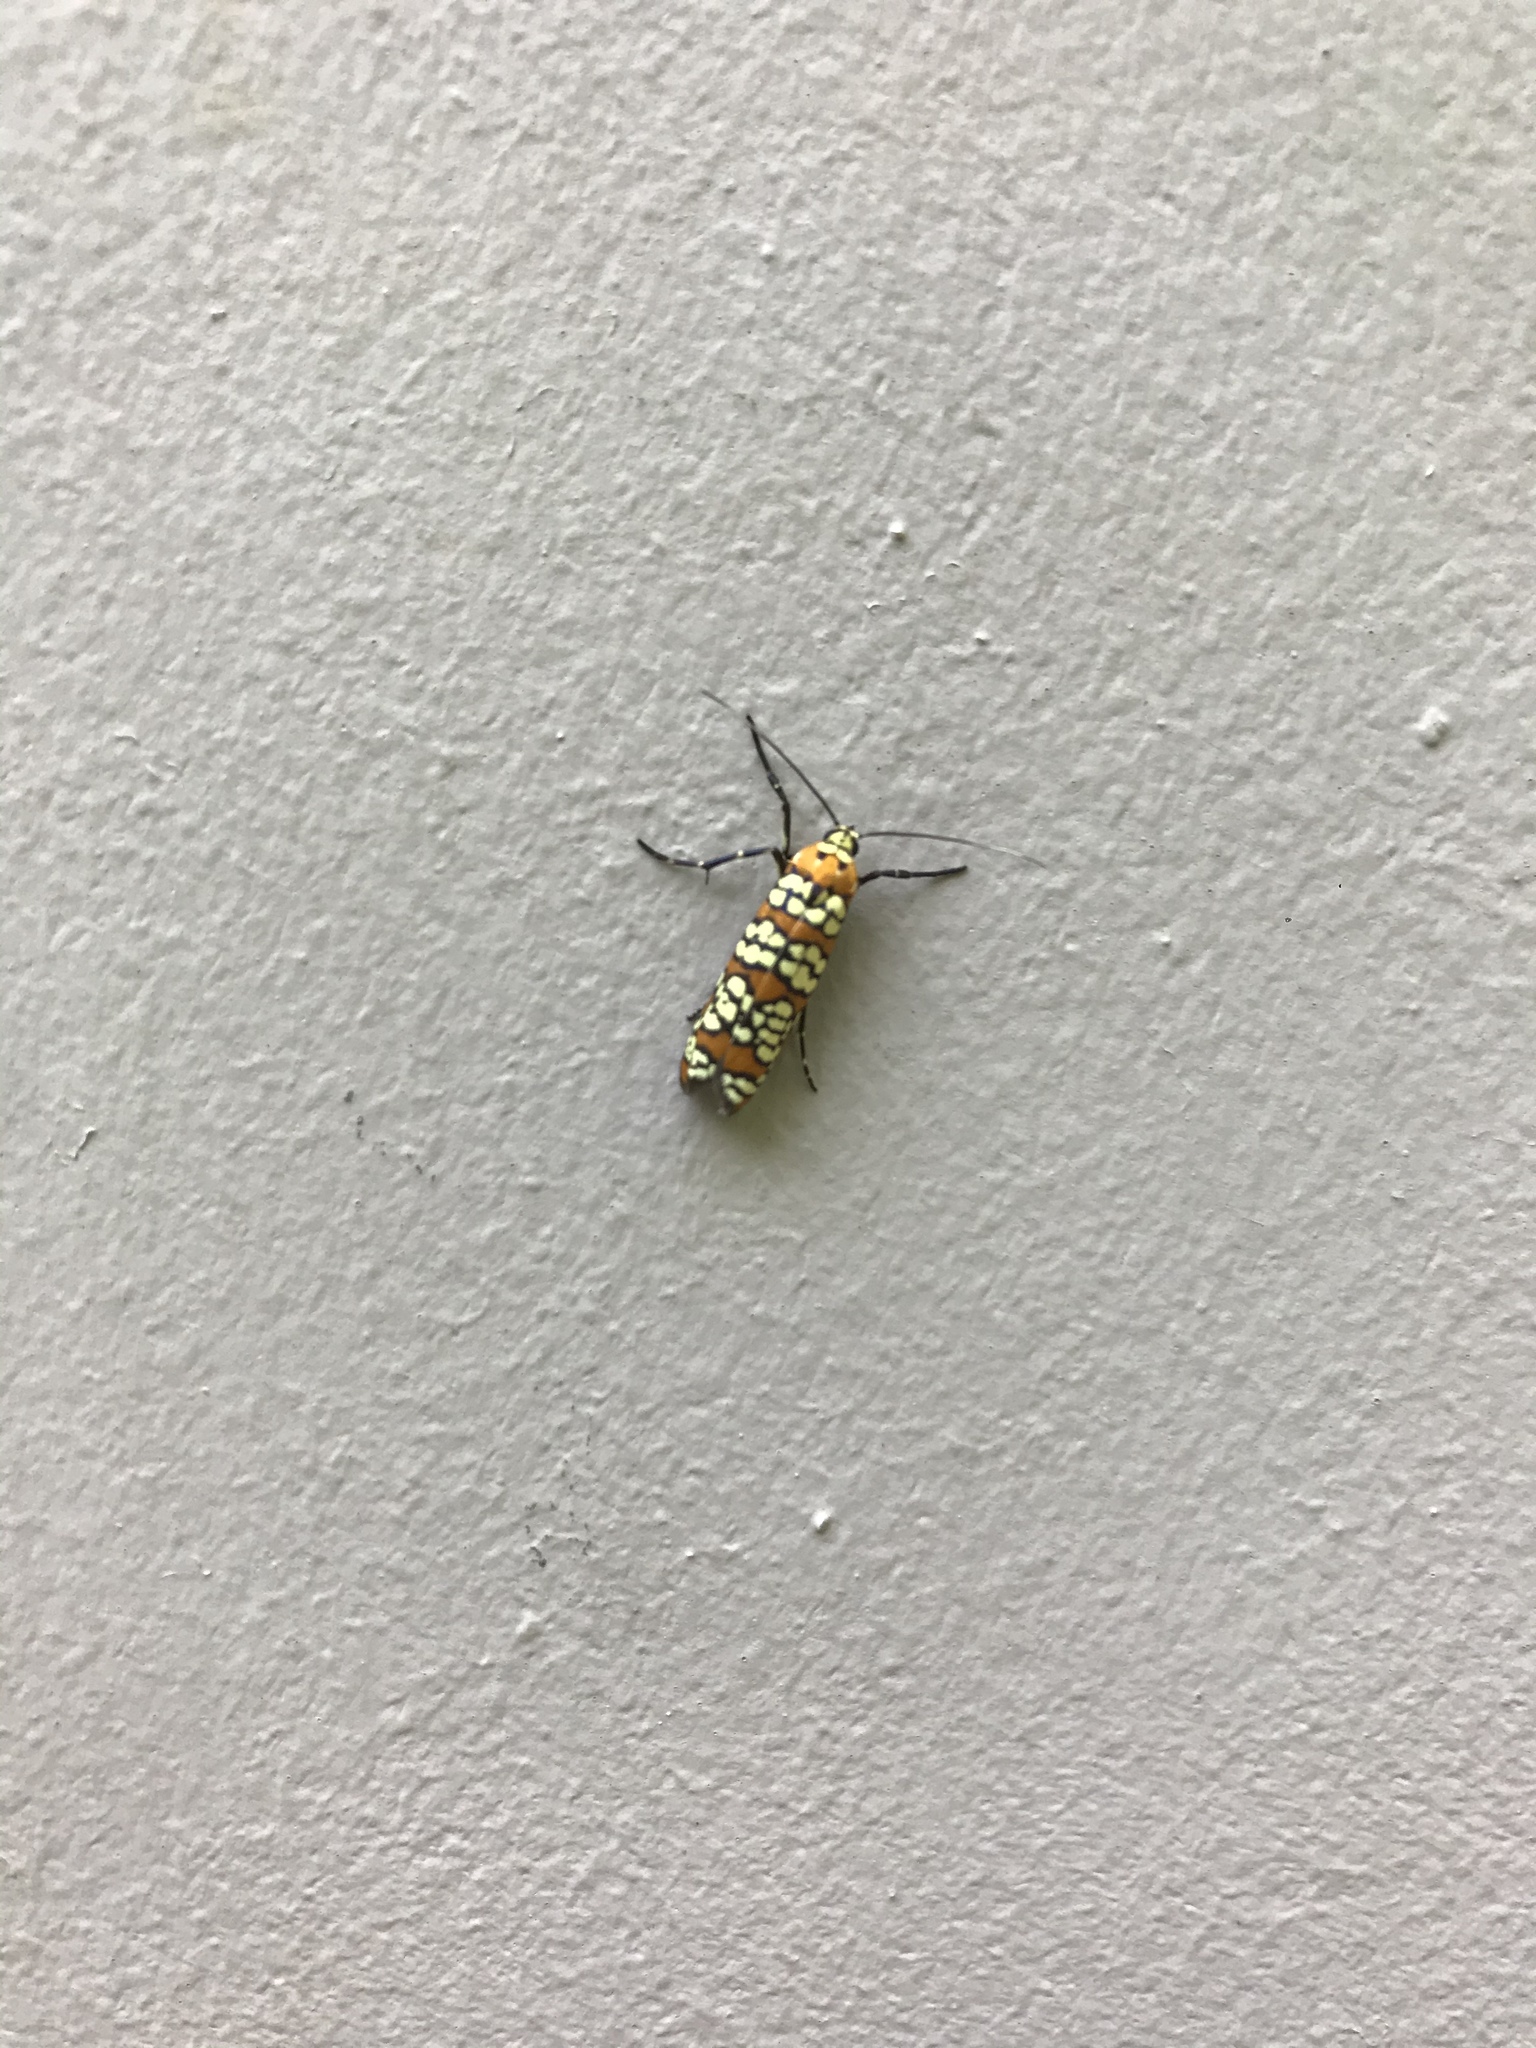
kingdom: Animalia
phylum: Arthropoda
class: Insecta
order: Lepidoptera
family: Attevidae
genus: Atteva
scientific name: Atteva punctella
